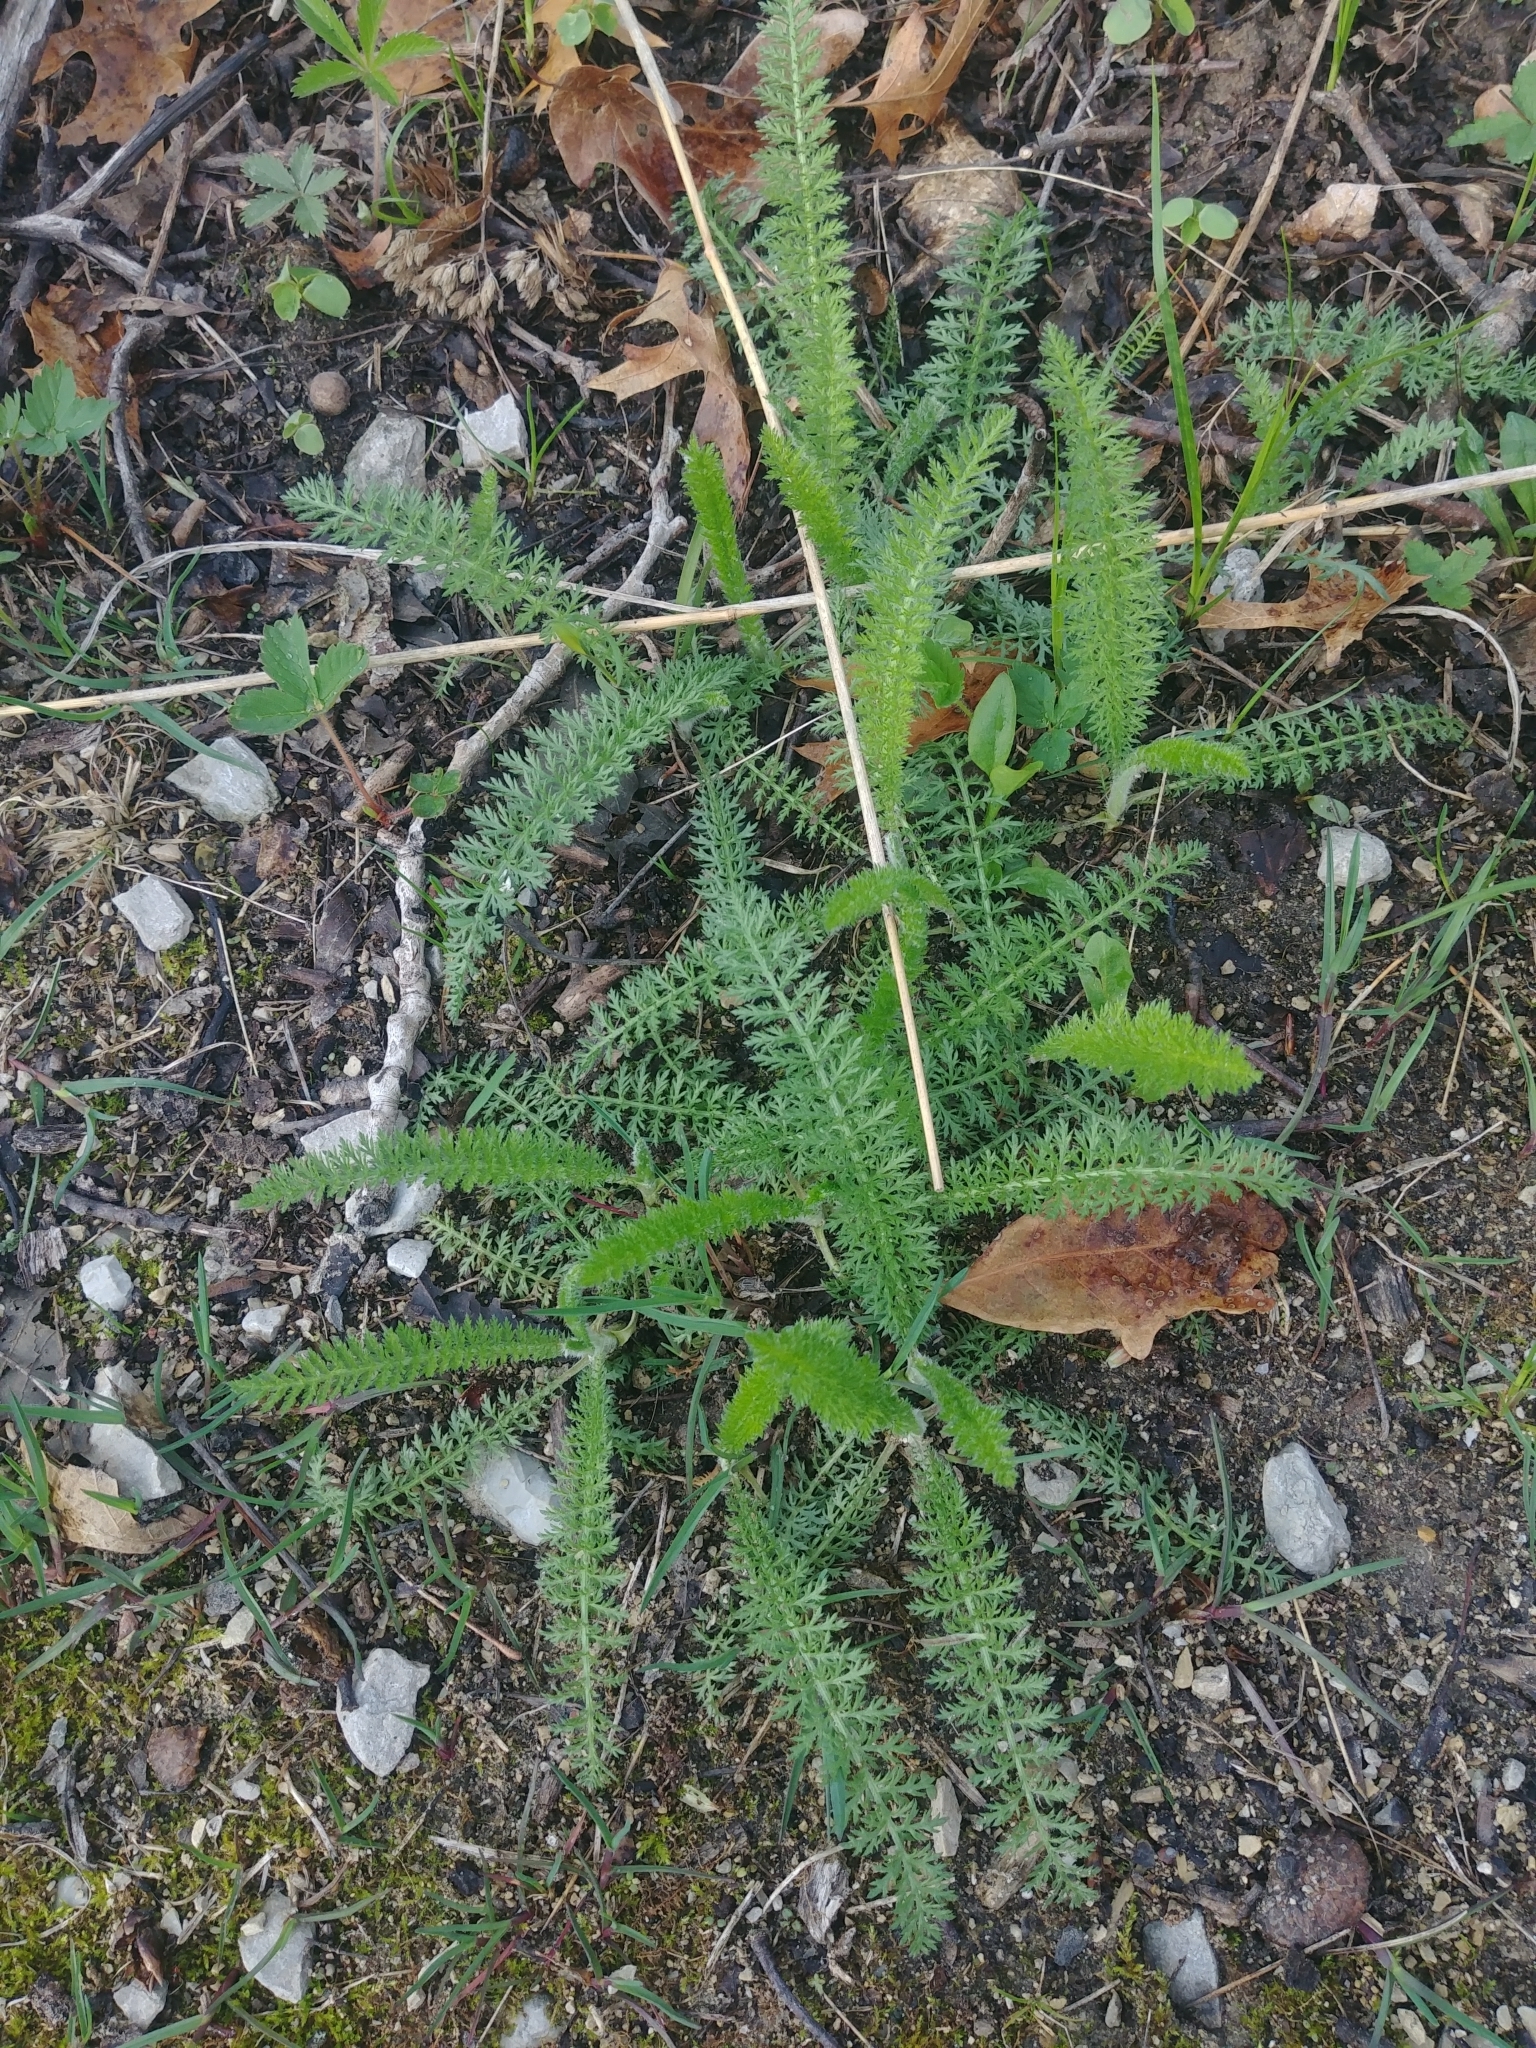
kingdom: Plantae
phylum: Tracheophyta
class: Magnoliopsida
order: Asterales
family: Asteraceae
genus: Achillea
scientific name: Achillea millefolium
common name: Yarrow
